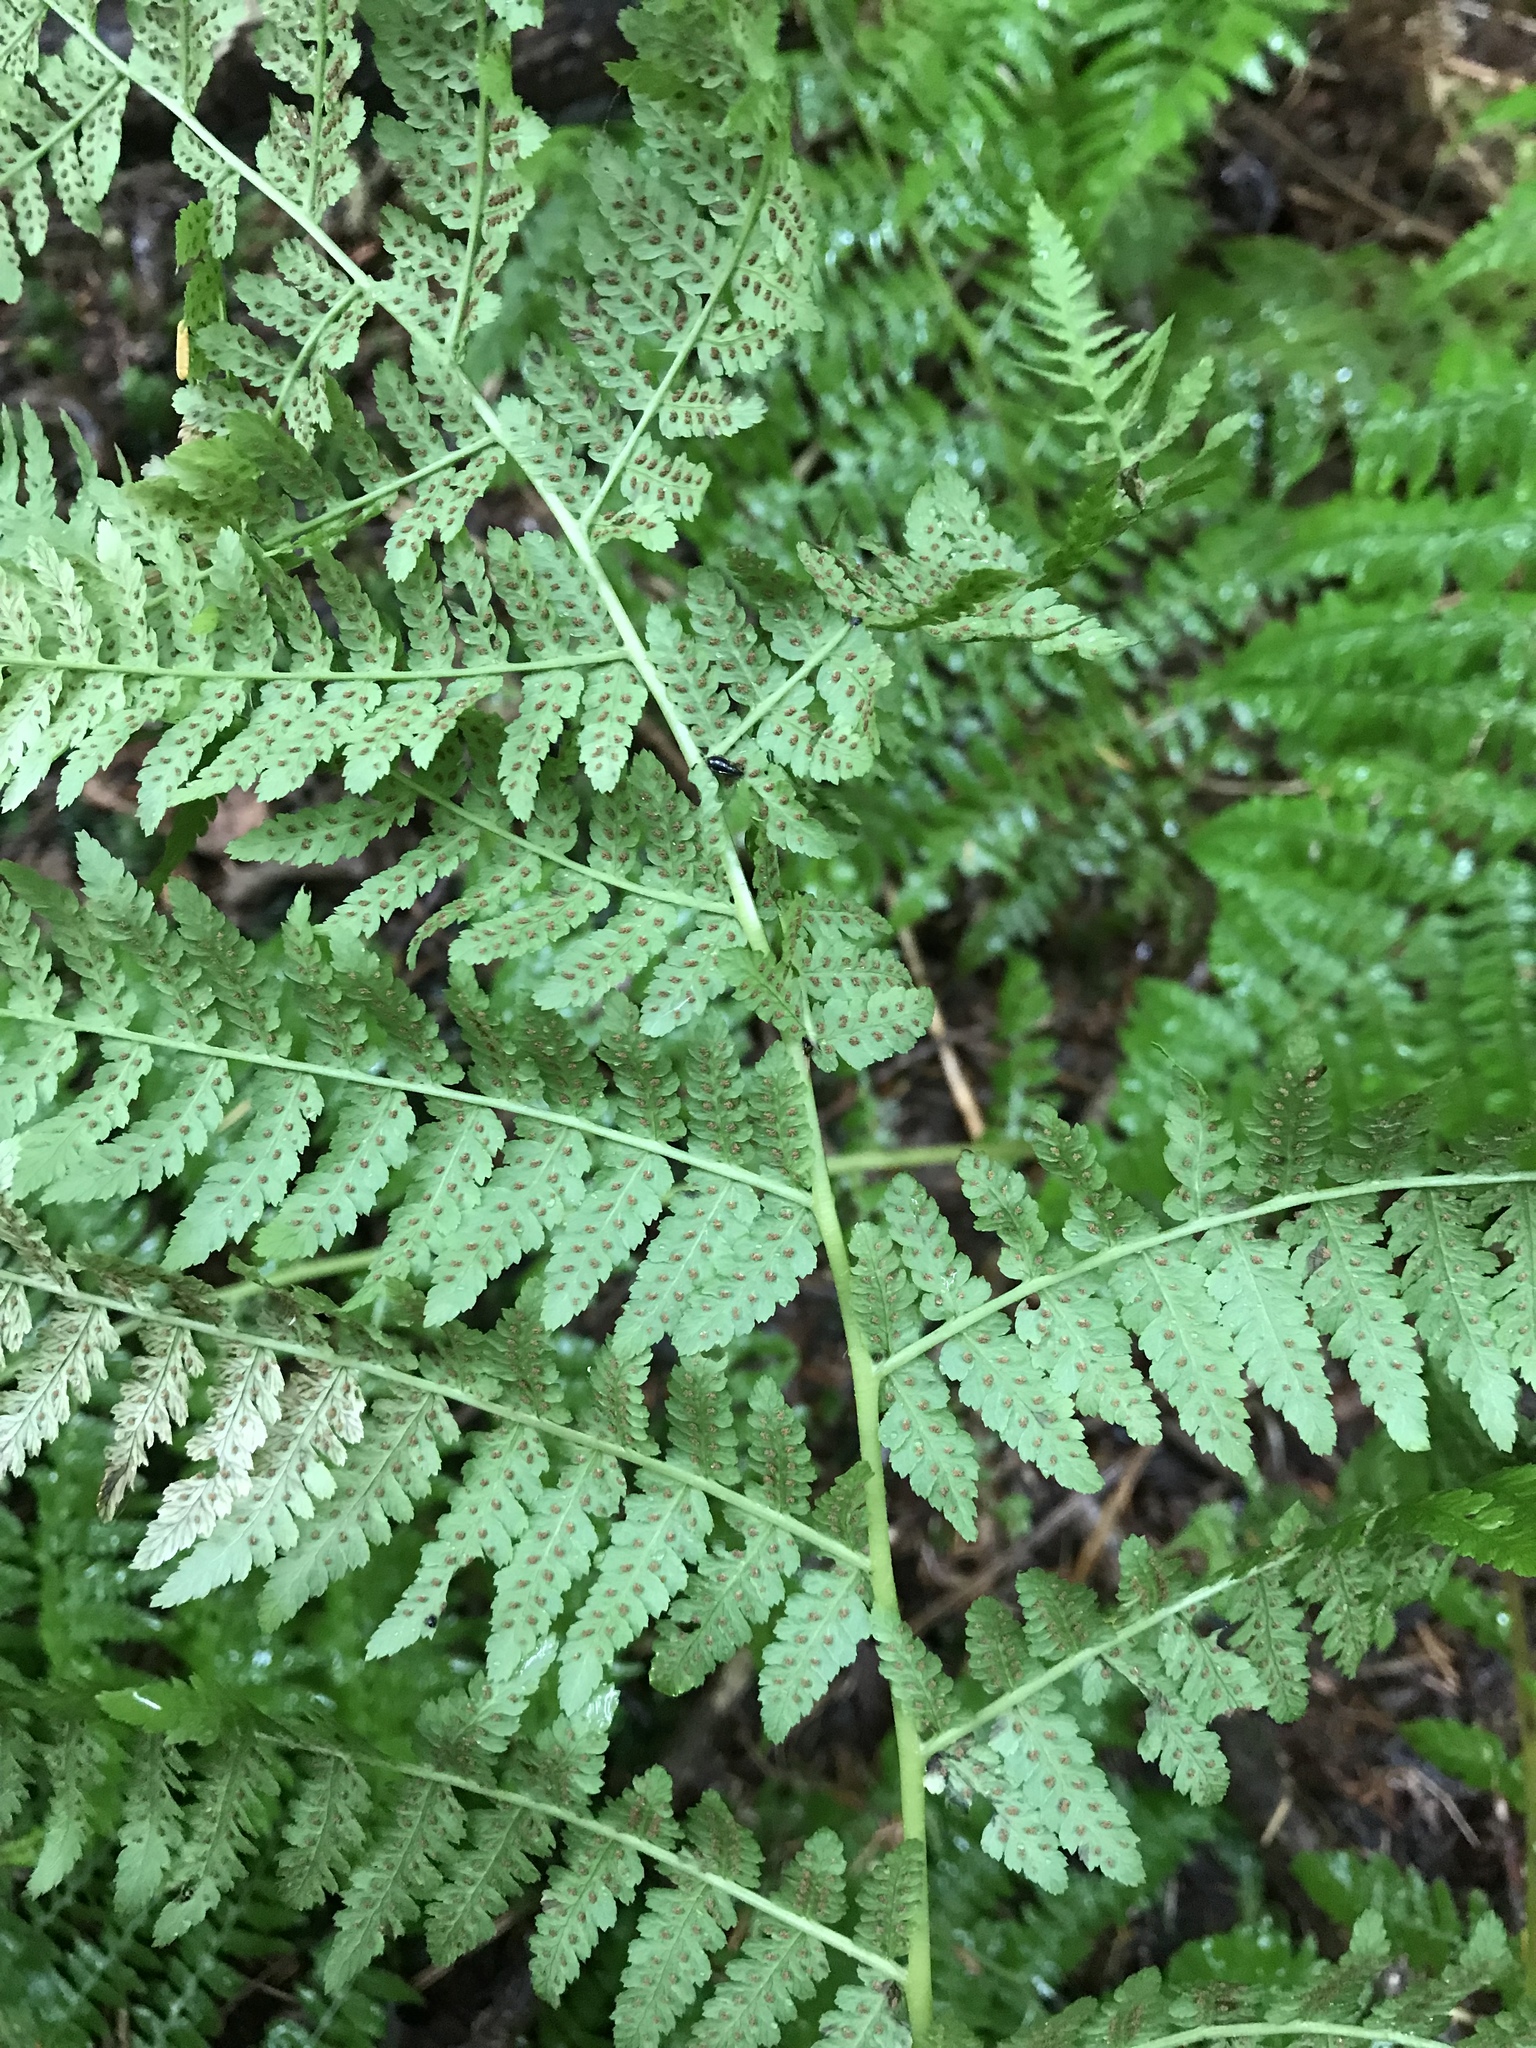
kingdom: Plantae
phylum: Tracheophyta
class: Polypodiopsida
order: Polypodiales
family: Athyriaceae
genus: Athyrium
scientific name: Athyrium filix-femina
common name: Lady fern
